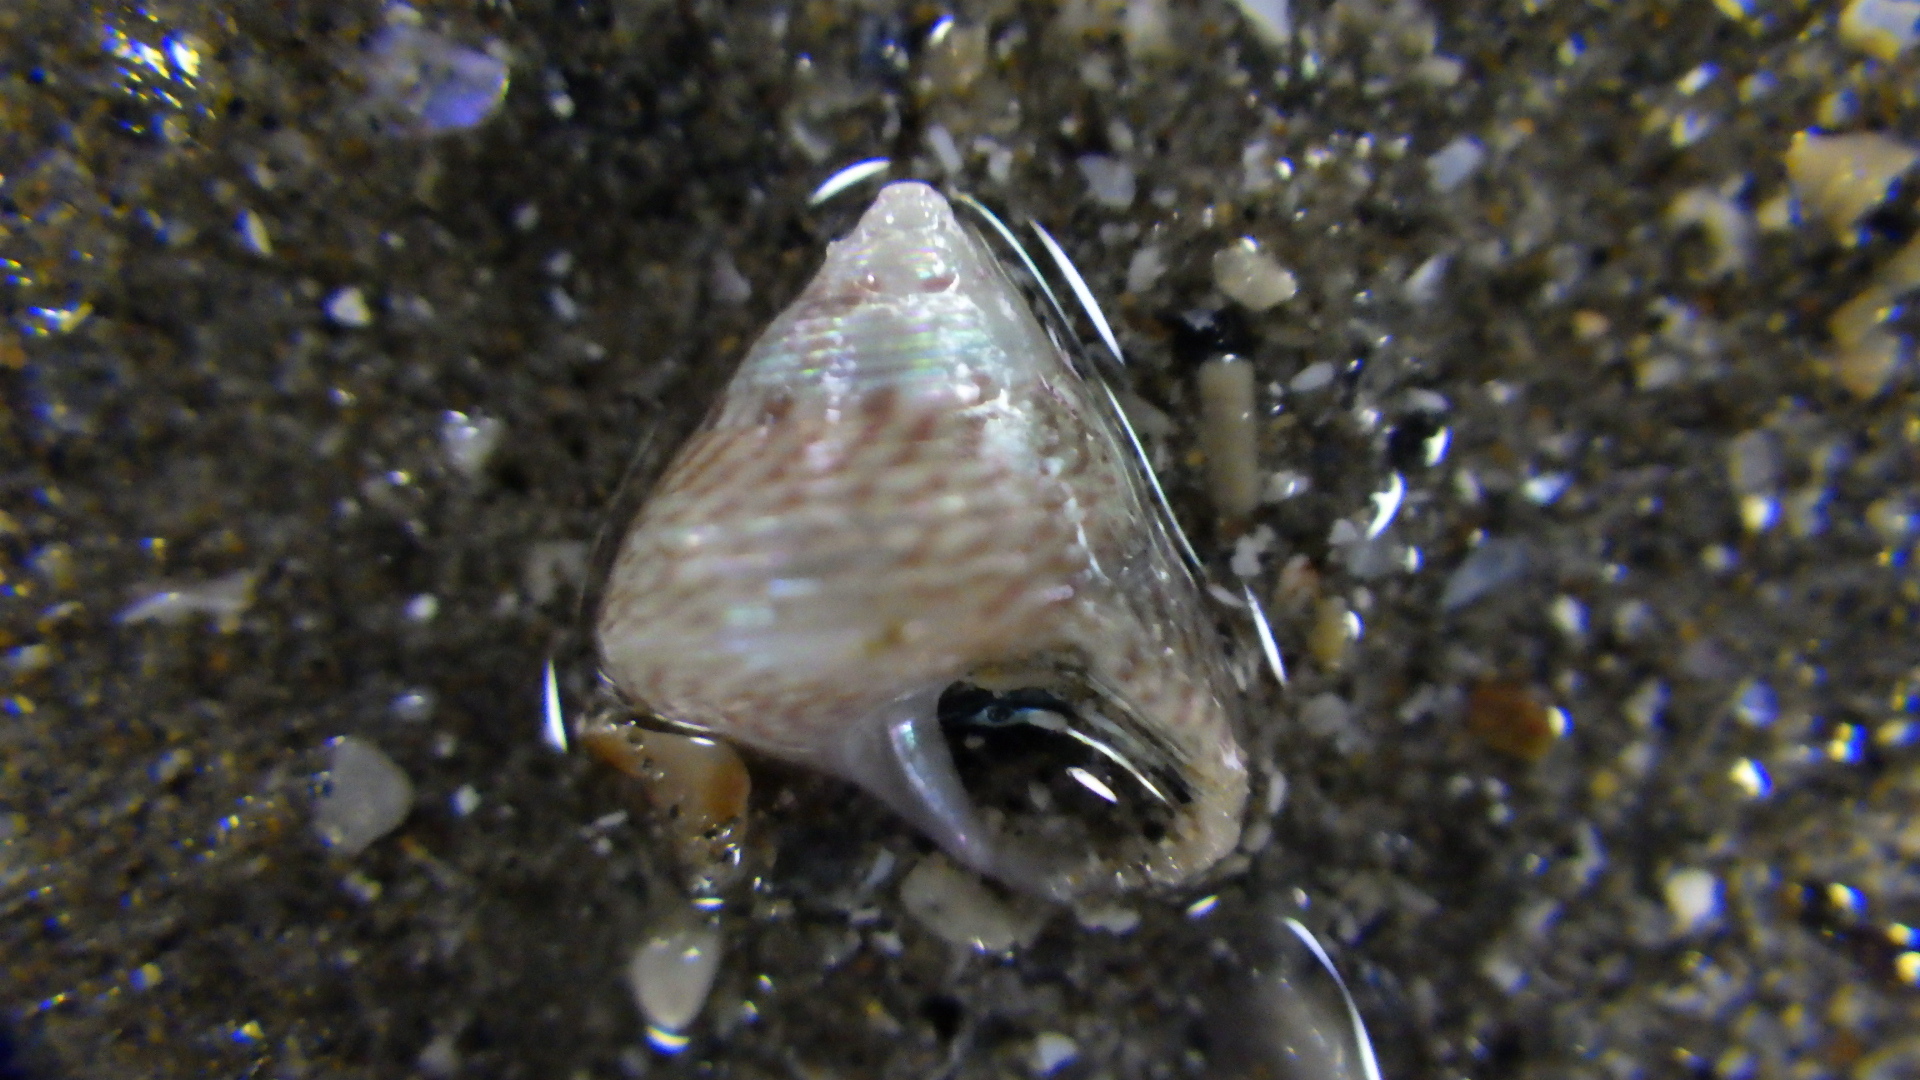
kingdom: Animalia
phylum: Mollusca
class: Gastropoda
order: Trochida
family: Trochidae
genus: Micrelenchus
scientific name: Micrelenchus sanguineus
